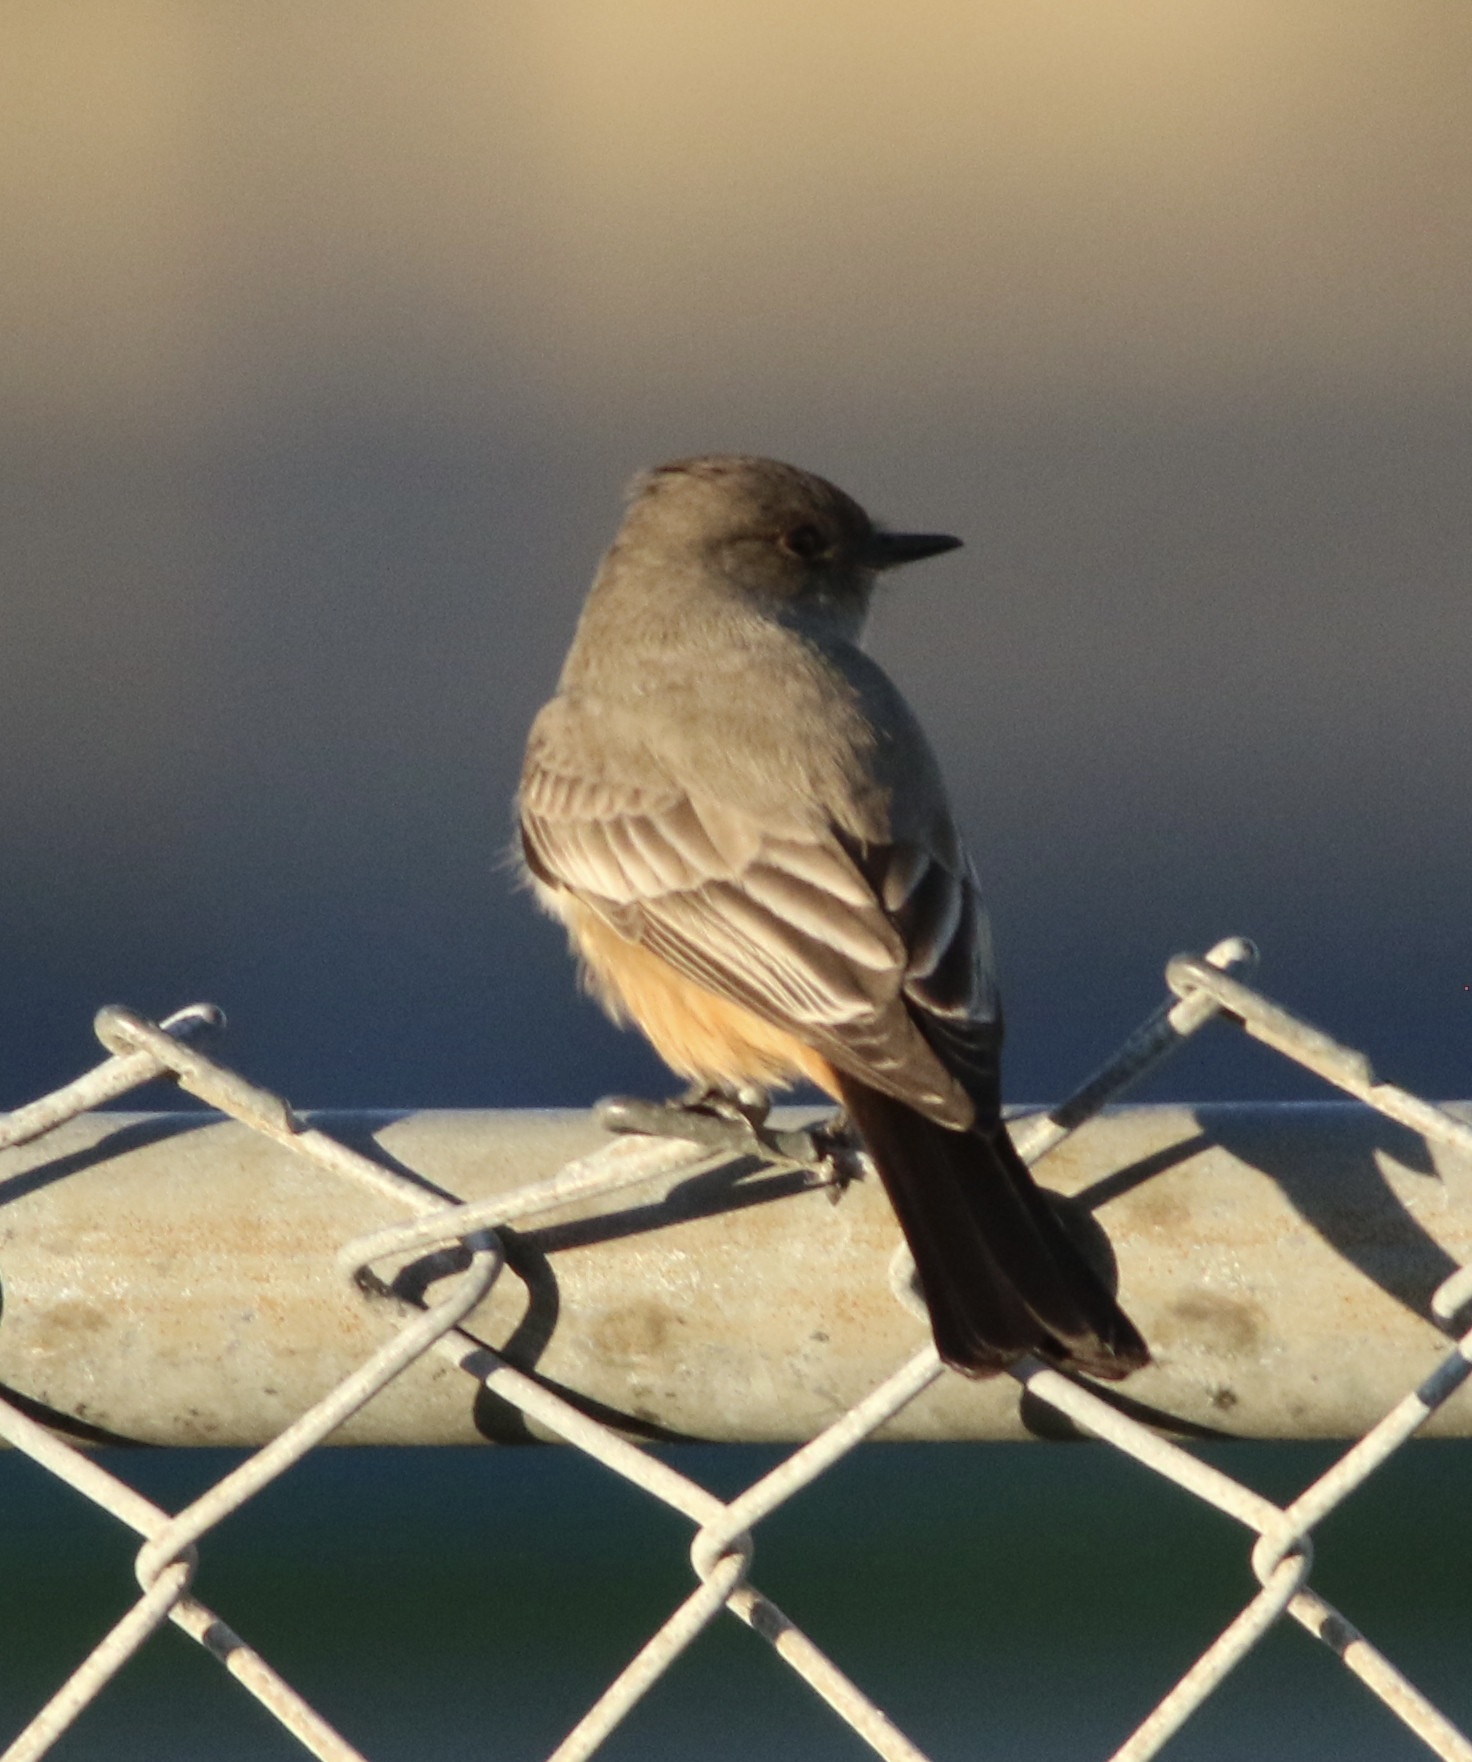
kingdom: Animalia
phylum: Chordata
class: Aves
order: Passeriformes
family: Tyrannidae
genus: Sayornis
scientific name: Sayornis saya
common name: Say's phoebe
